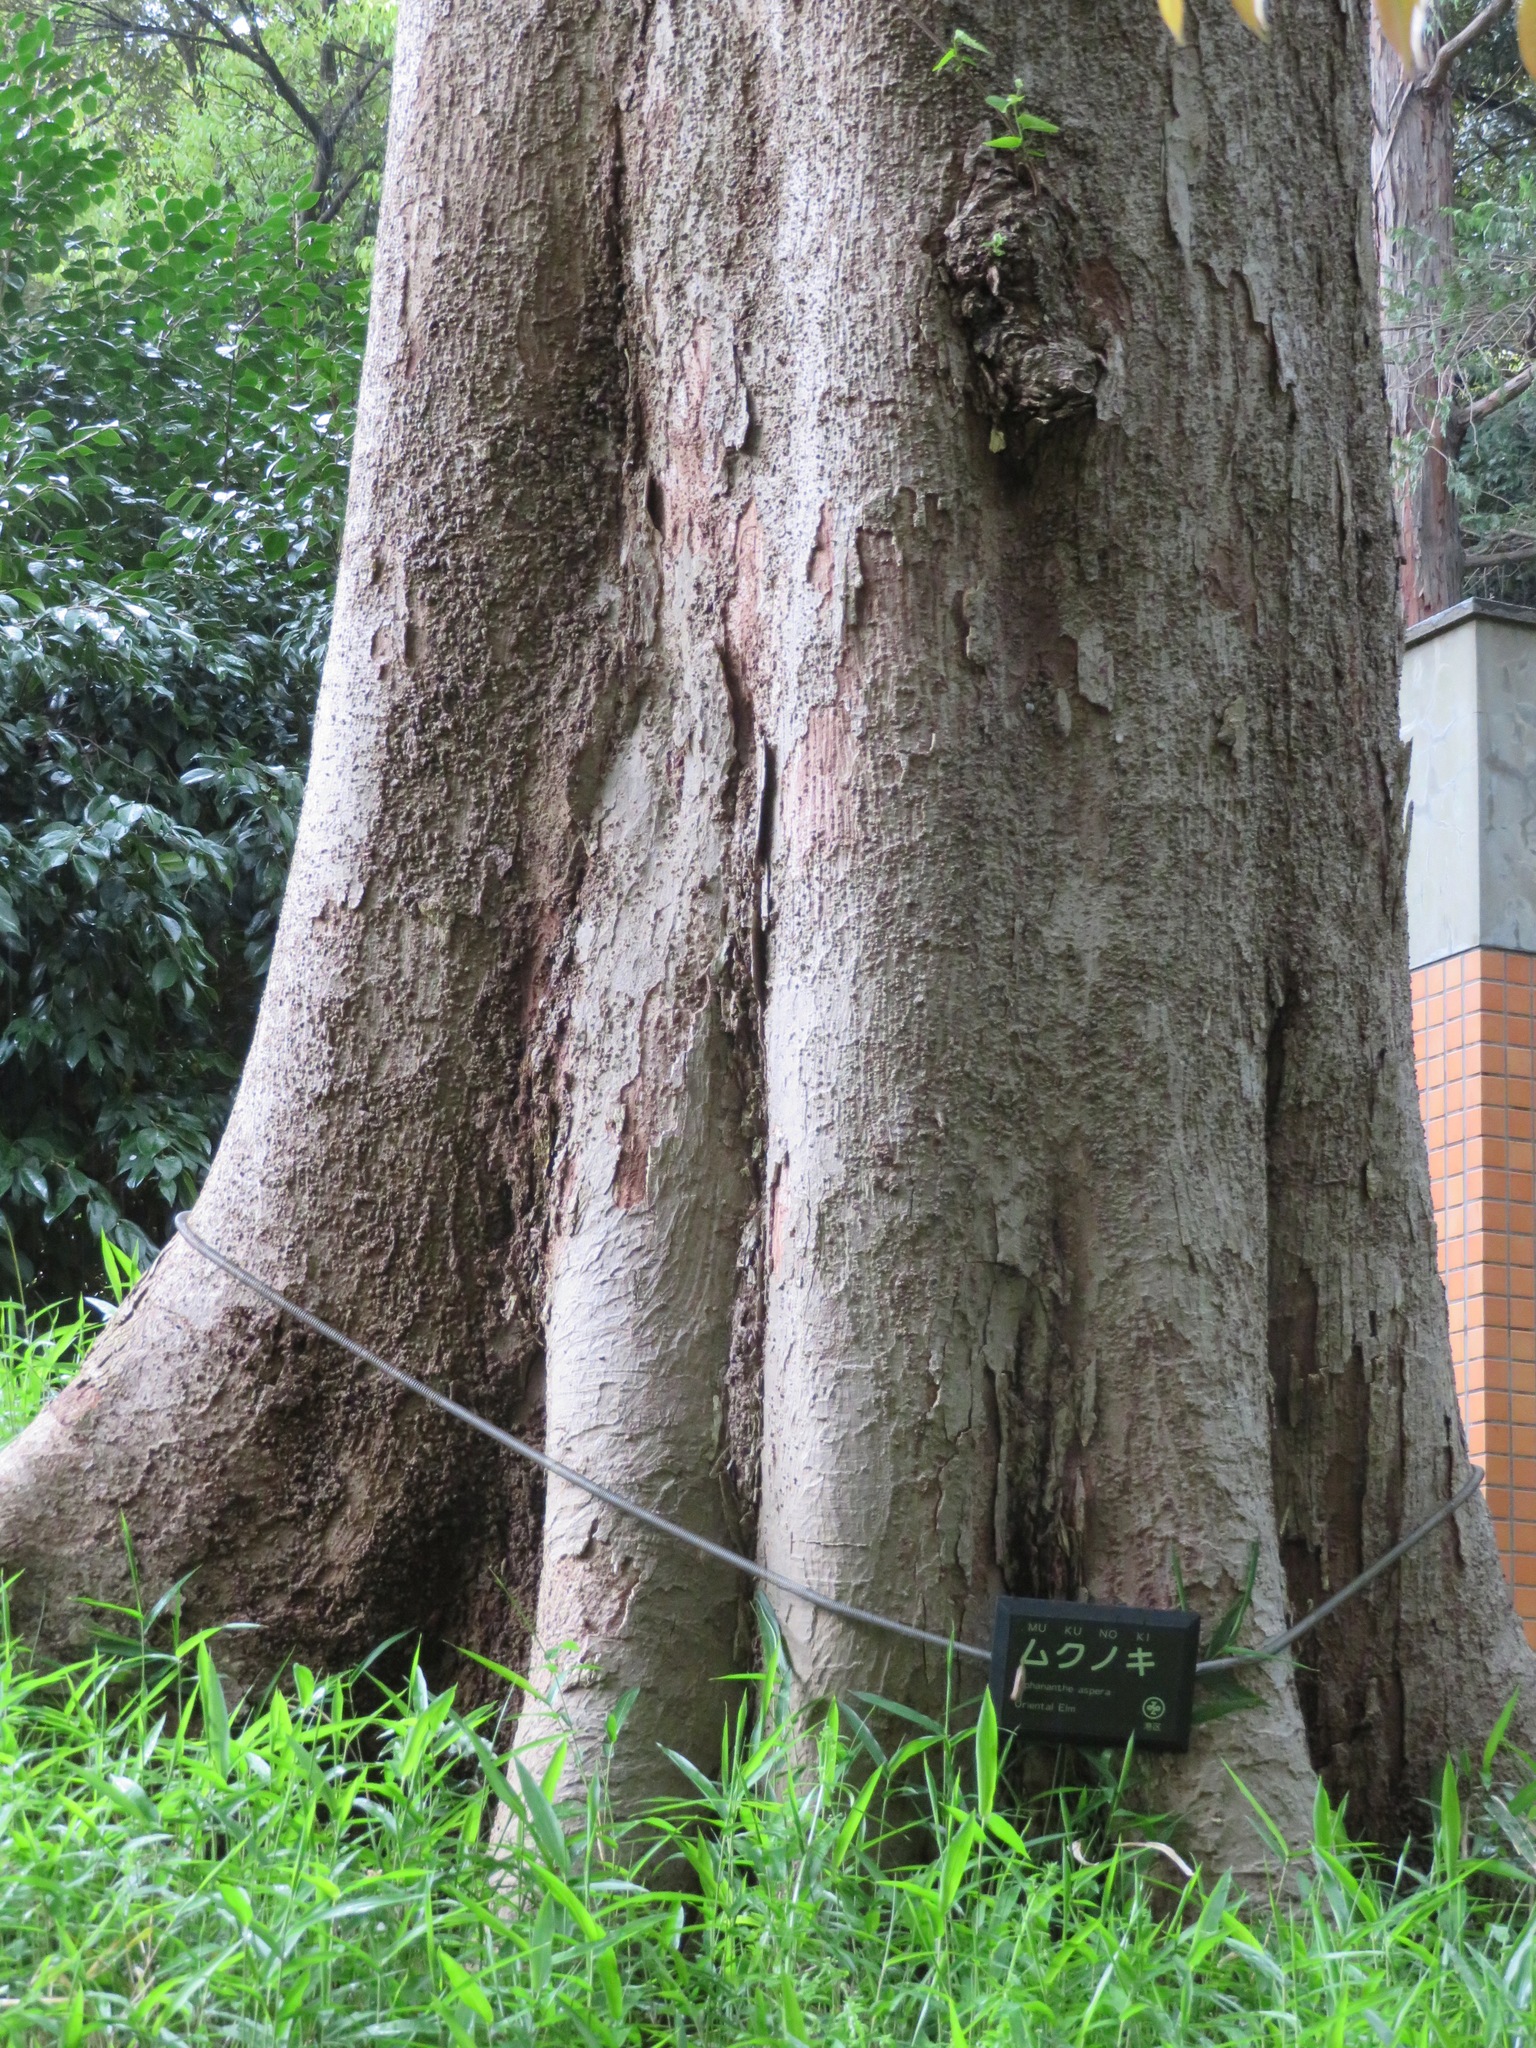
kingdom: Plantae
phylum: Tracheophyta
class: Magnoliopsida
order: Rosales
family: Cannabaceae
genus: Aphananthe
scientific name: Aphananthe aspera
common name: Mukutree
